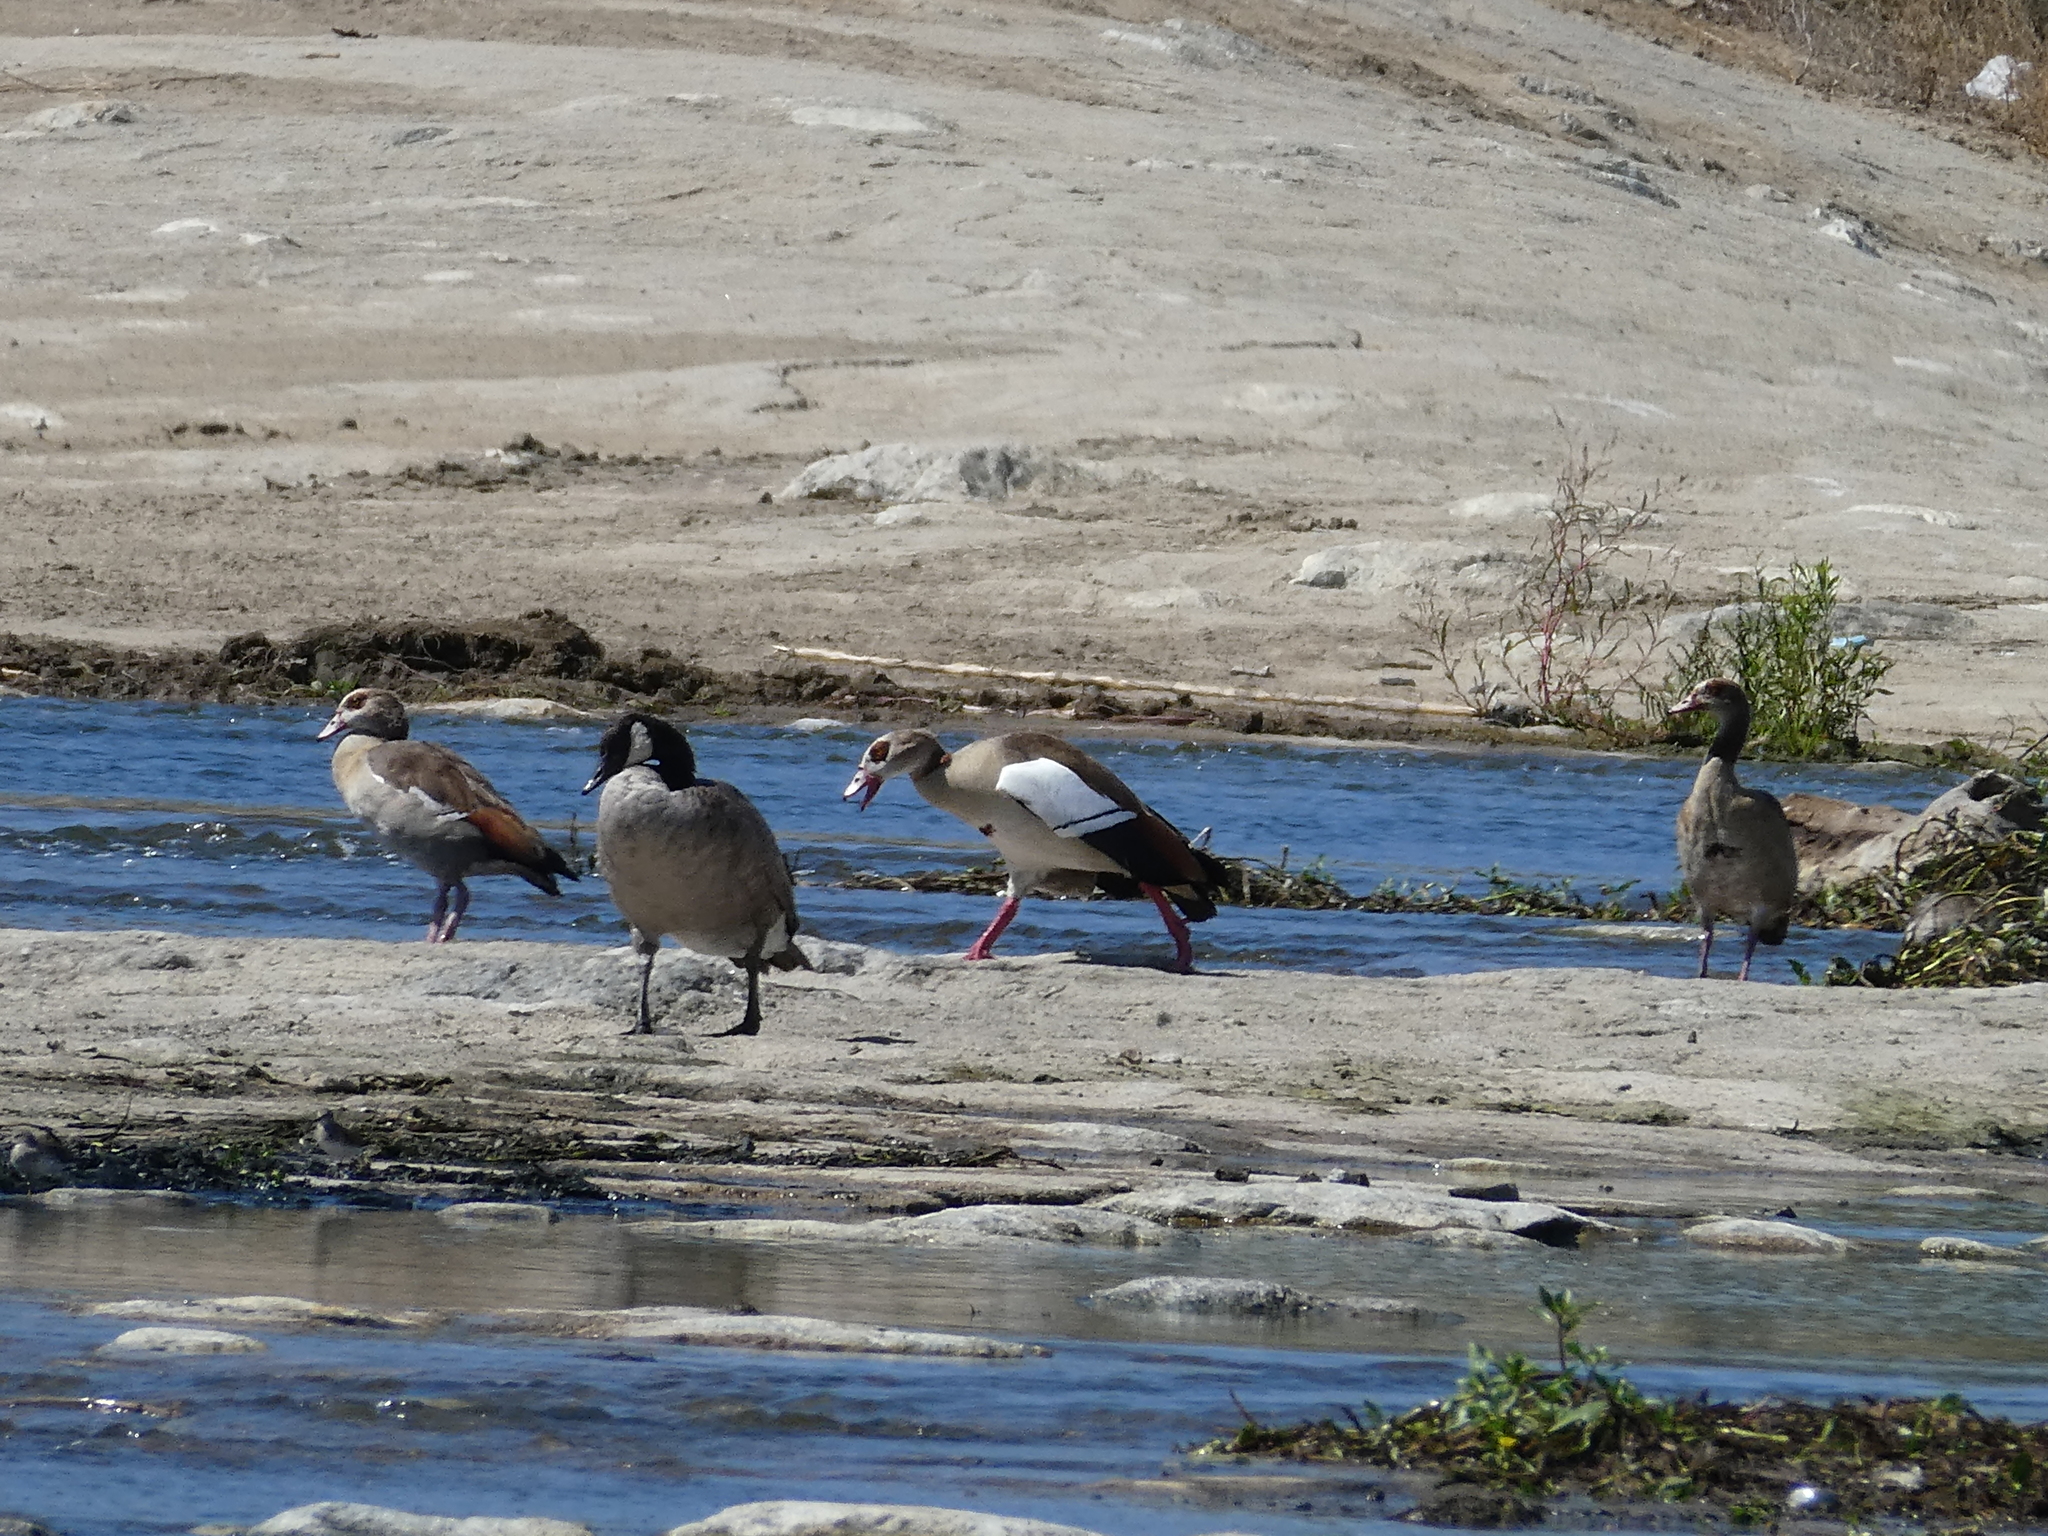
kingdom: Animalia
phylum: Chordata
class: Aves
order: Anseriformes
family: Anatidae
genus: Alopochen
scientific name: Alopochen aegyptiaca
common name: Egyptian goose
